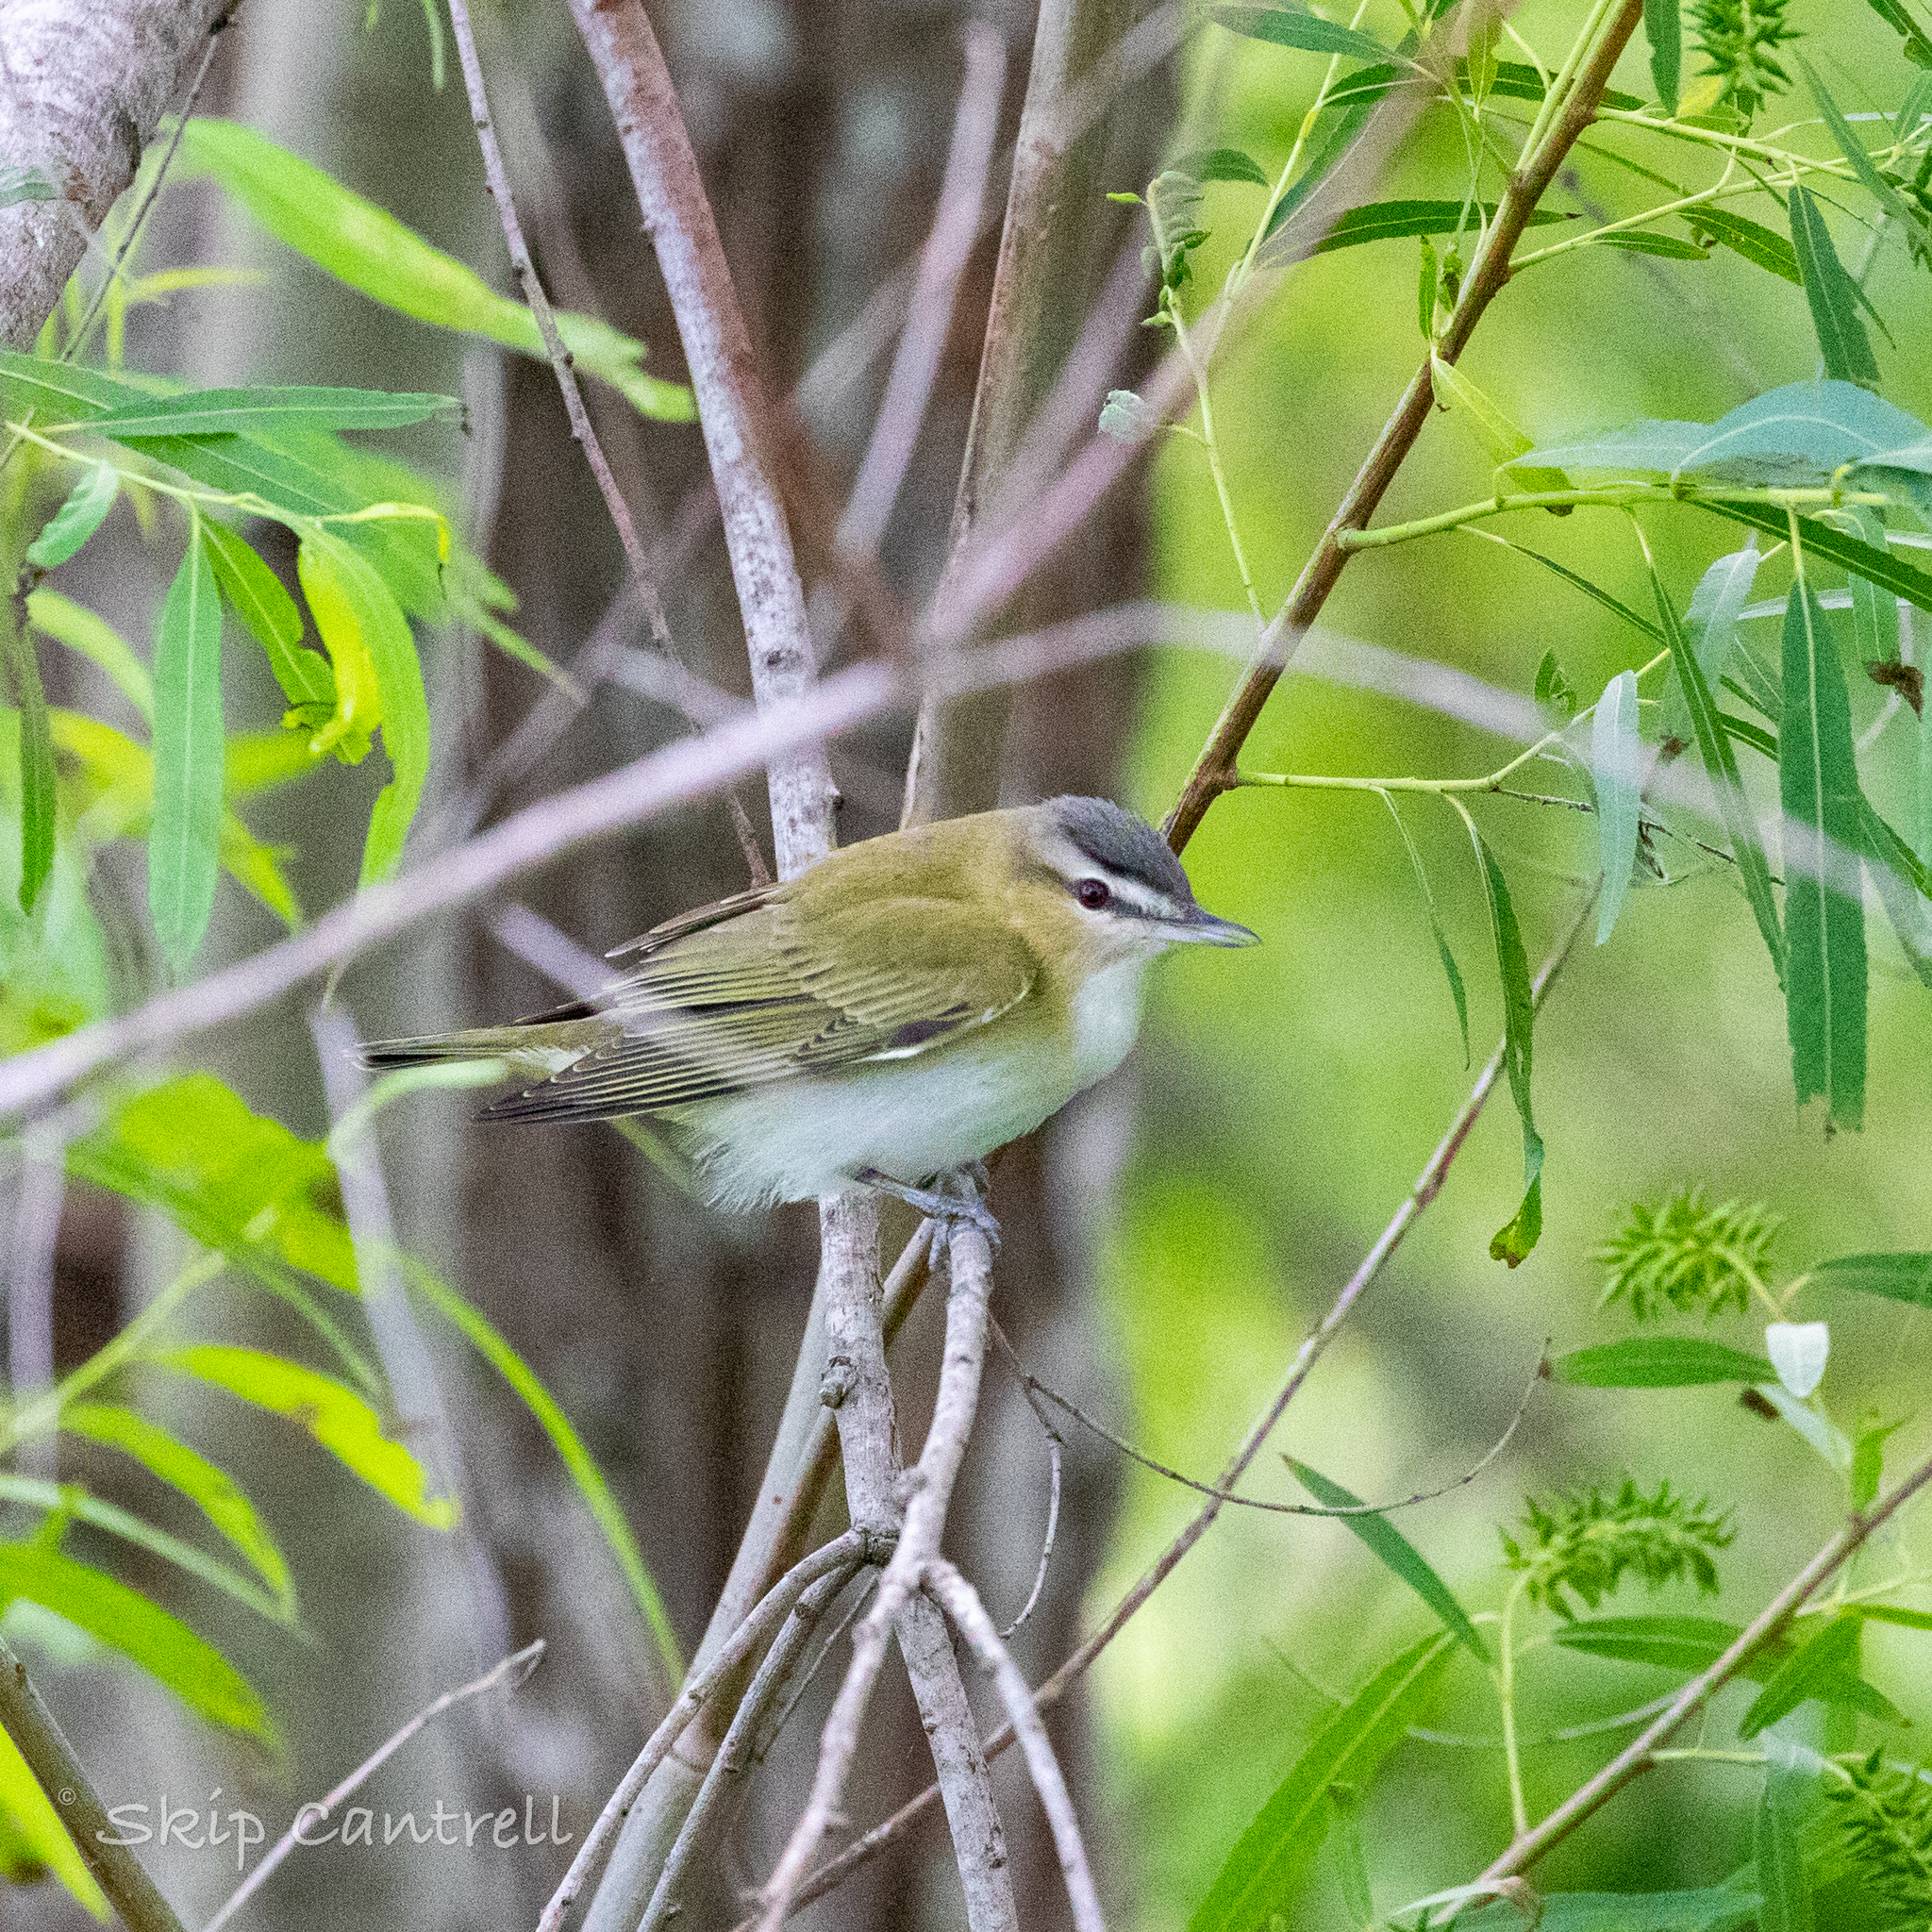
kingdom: Animalia
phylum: Chordata
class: Aves
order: Passeriformes
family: Vireonidae
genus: Vireo
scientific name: Vireo olivaceus
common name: Red-eyed vireo
